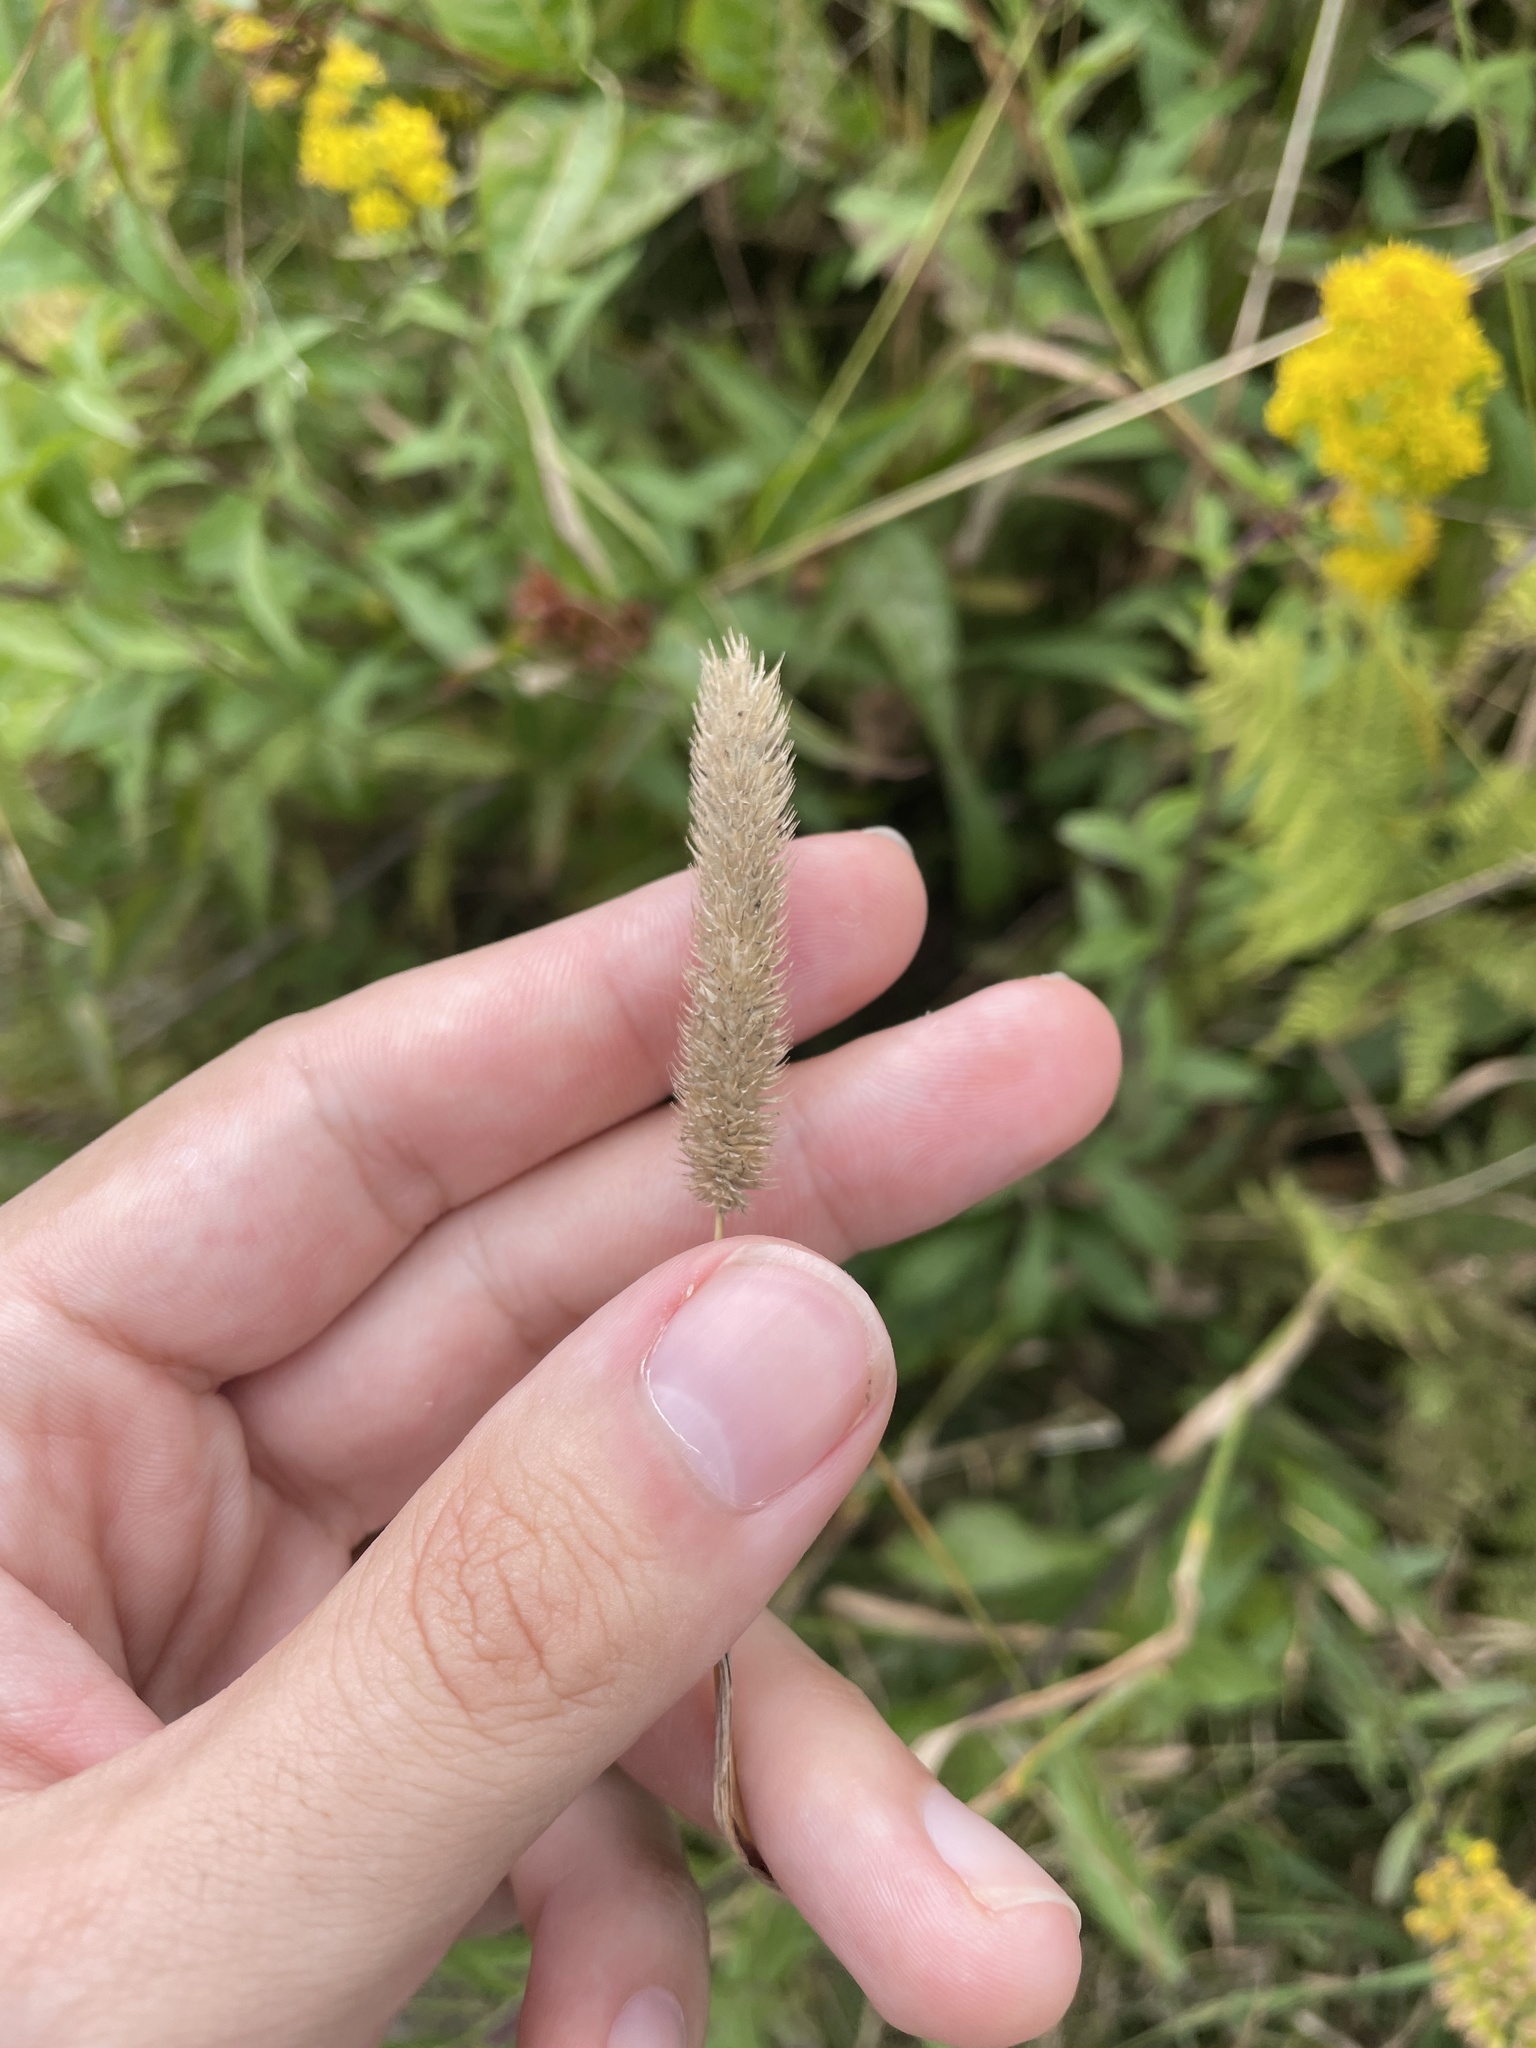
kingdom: Plantae
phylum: Tracheophyta
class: Liliopsida
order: Poales
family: Poaceae
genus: Phleum
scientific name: Phleum pratense
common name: Timothy grass
